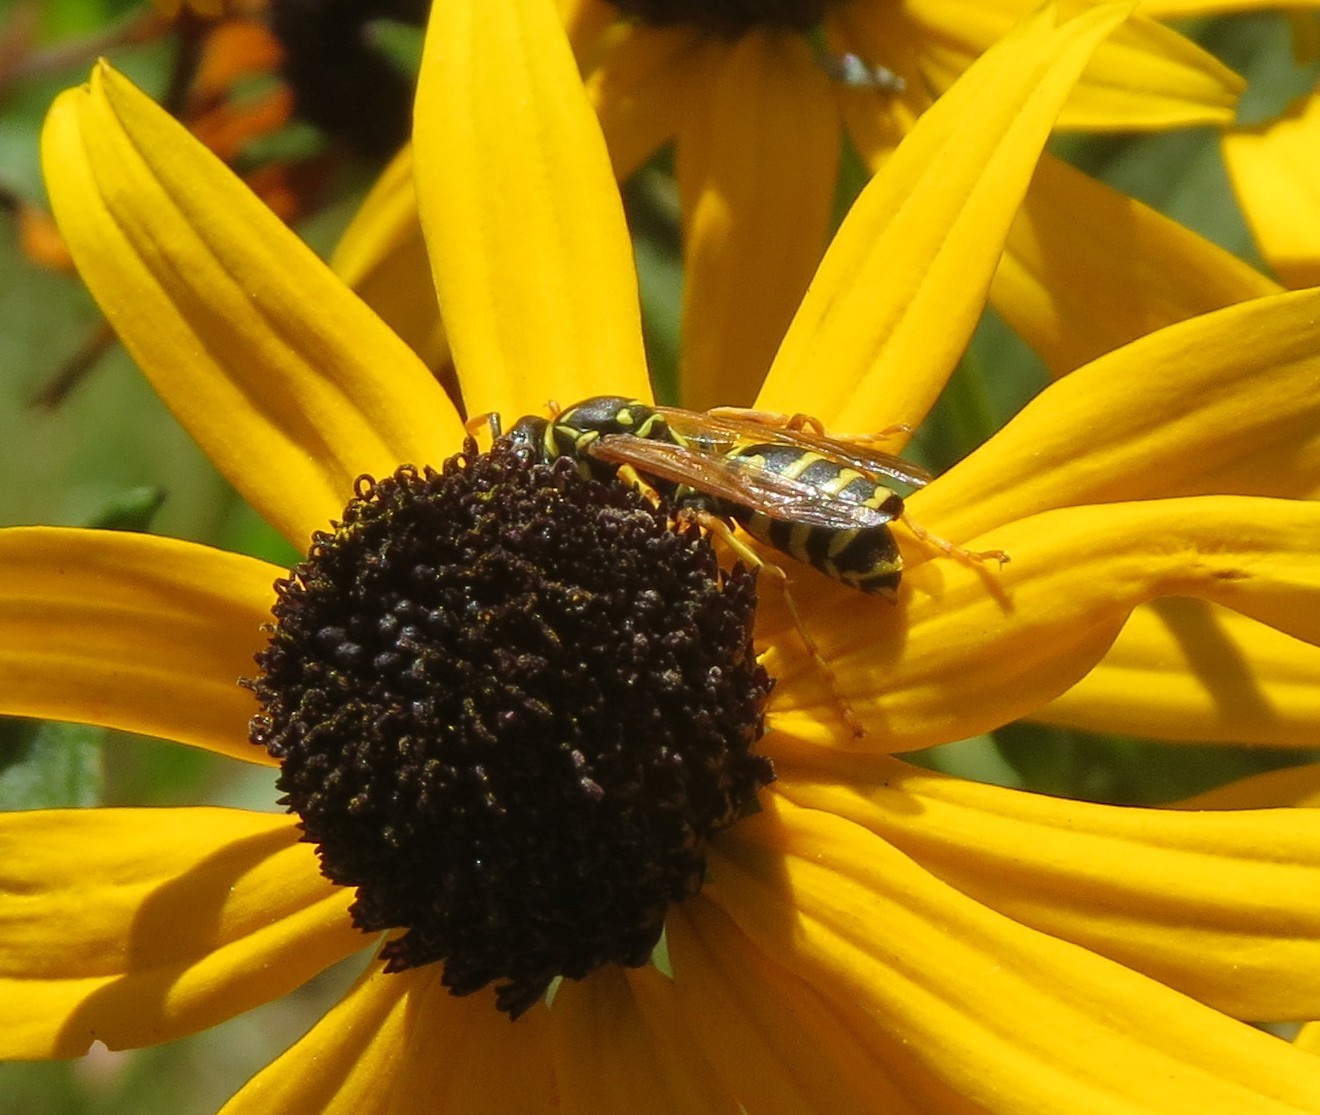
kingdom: Animalia
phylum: Arthropoda
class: Insecta
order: Hymenoptera
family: Eumenidae
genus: Polistes
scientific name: Polistes dominula
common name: Paper wasp
